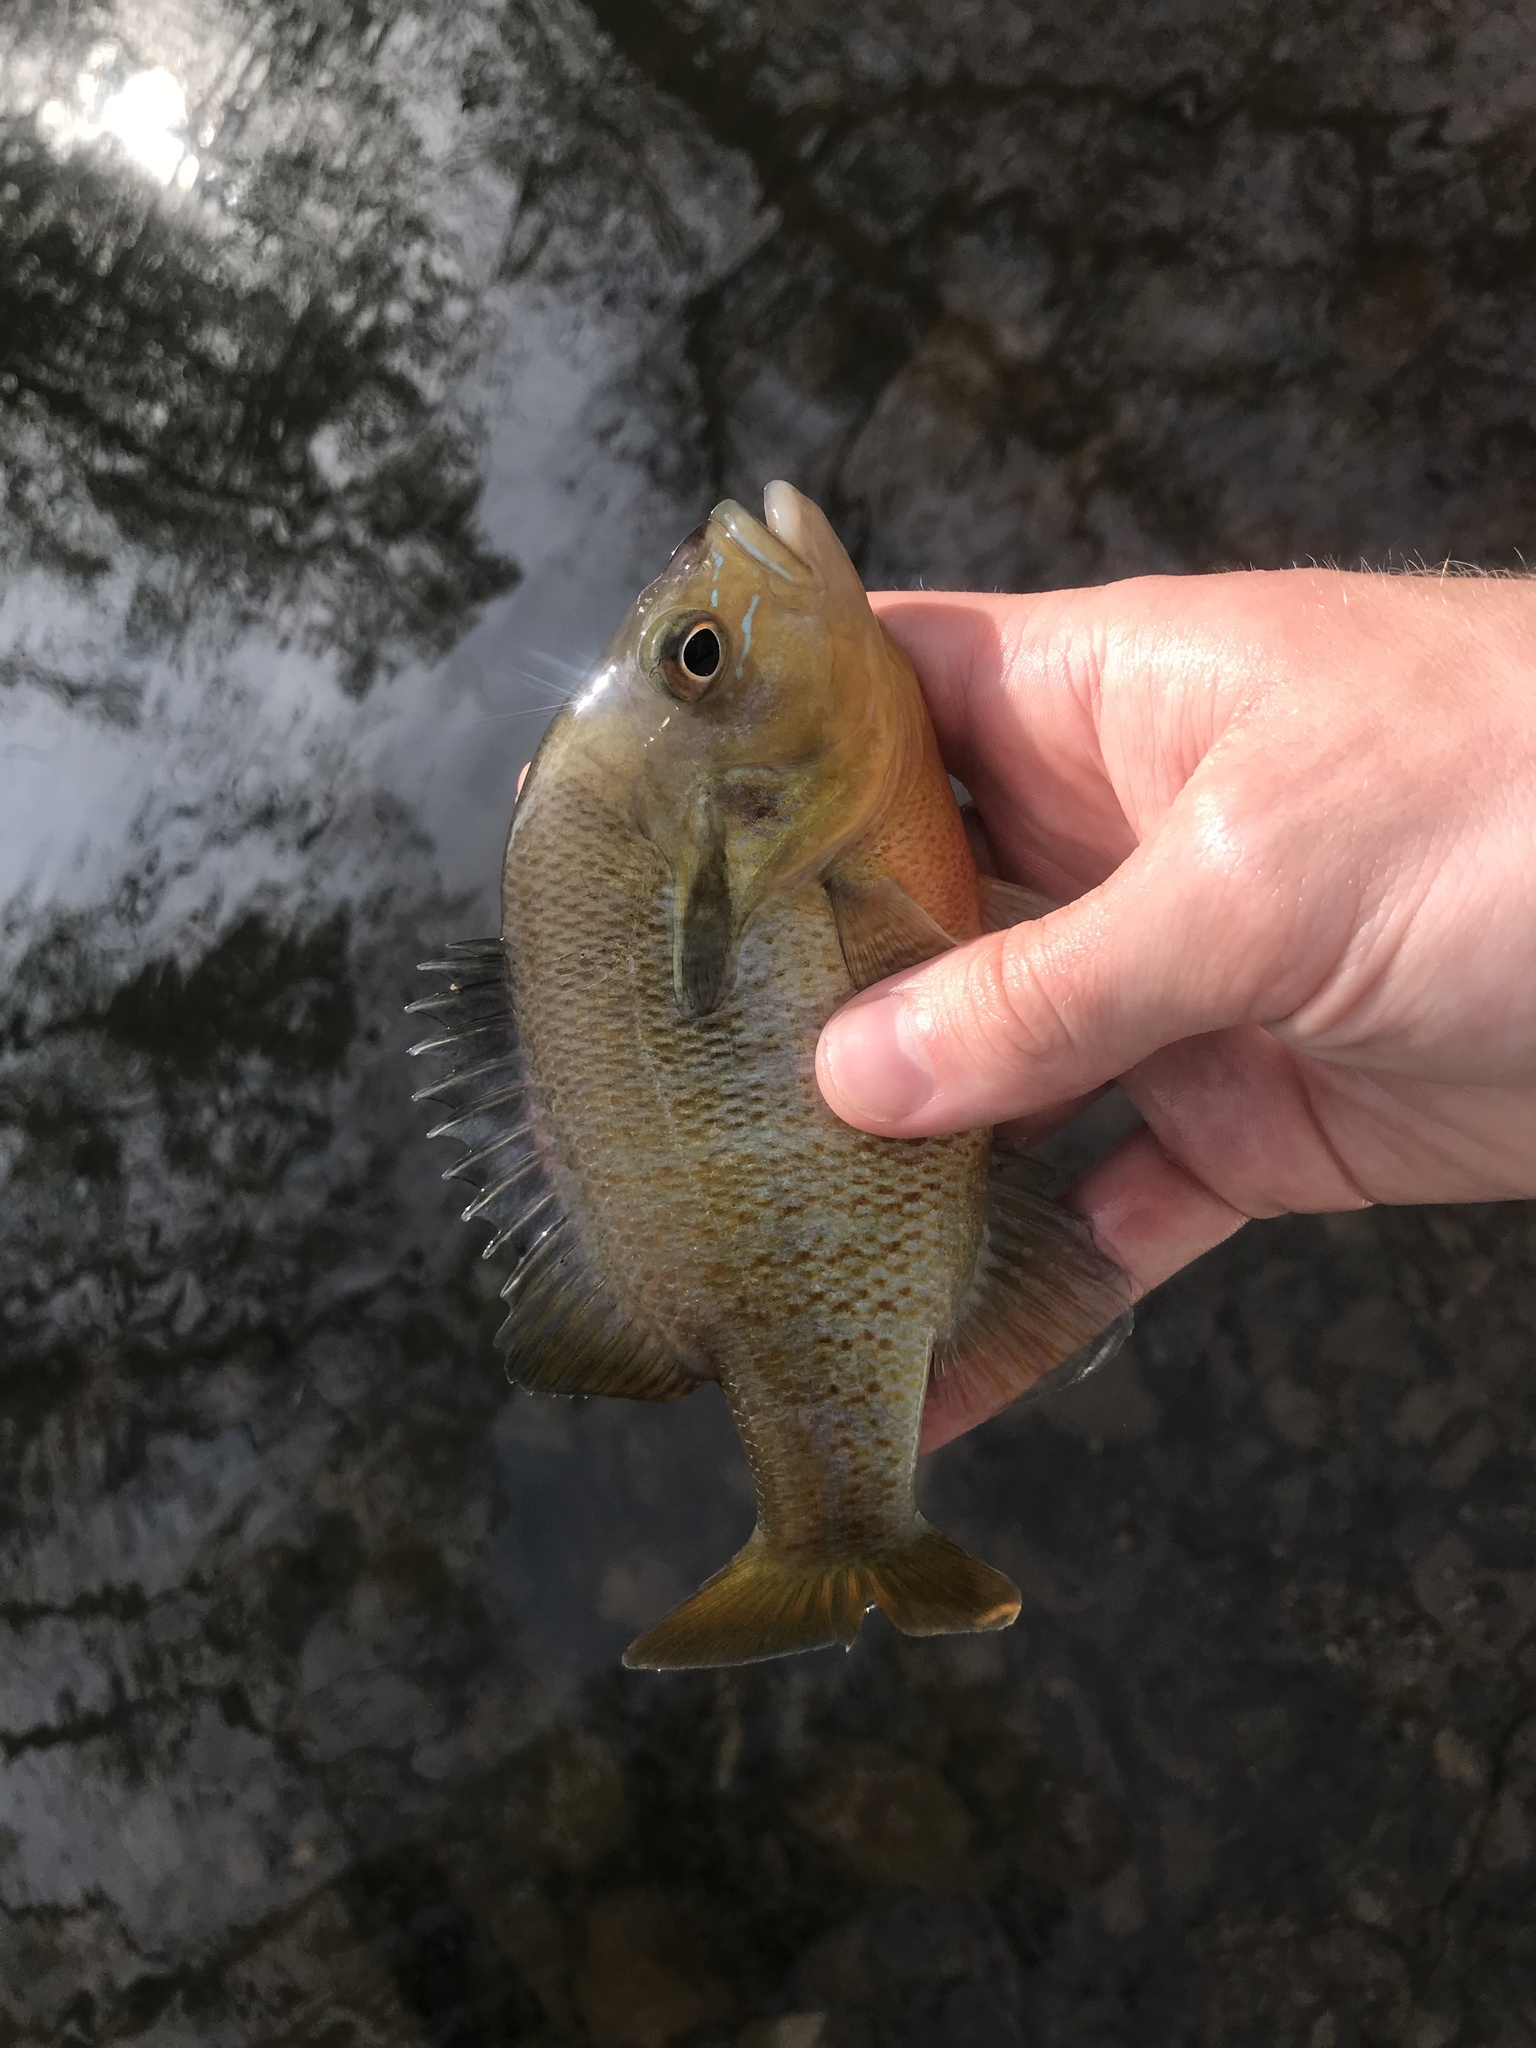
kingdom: Animalia
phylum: Chordata
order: Perciformes
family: Centrarchidae
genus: Lepomis
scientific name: Lepomis auritus
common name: Redbreast sunfish
